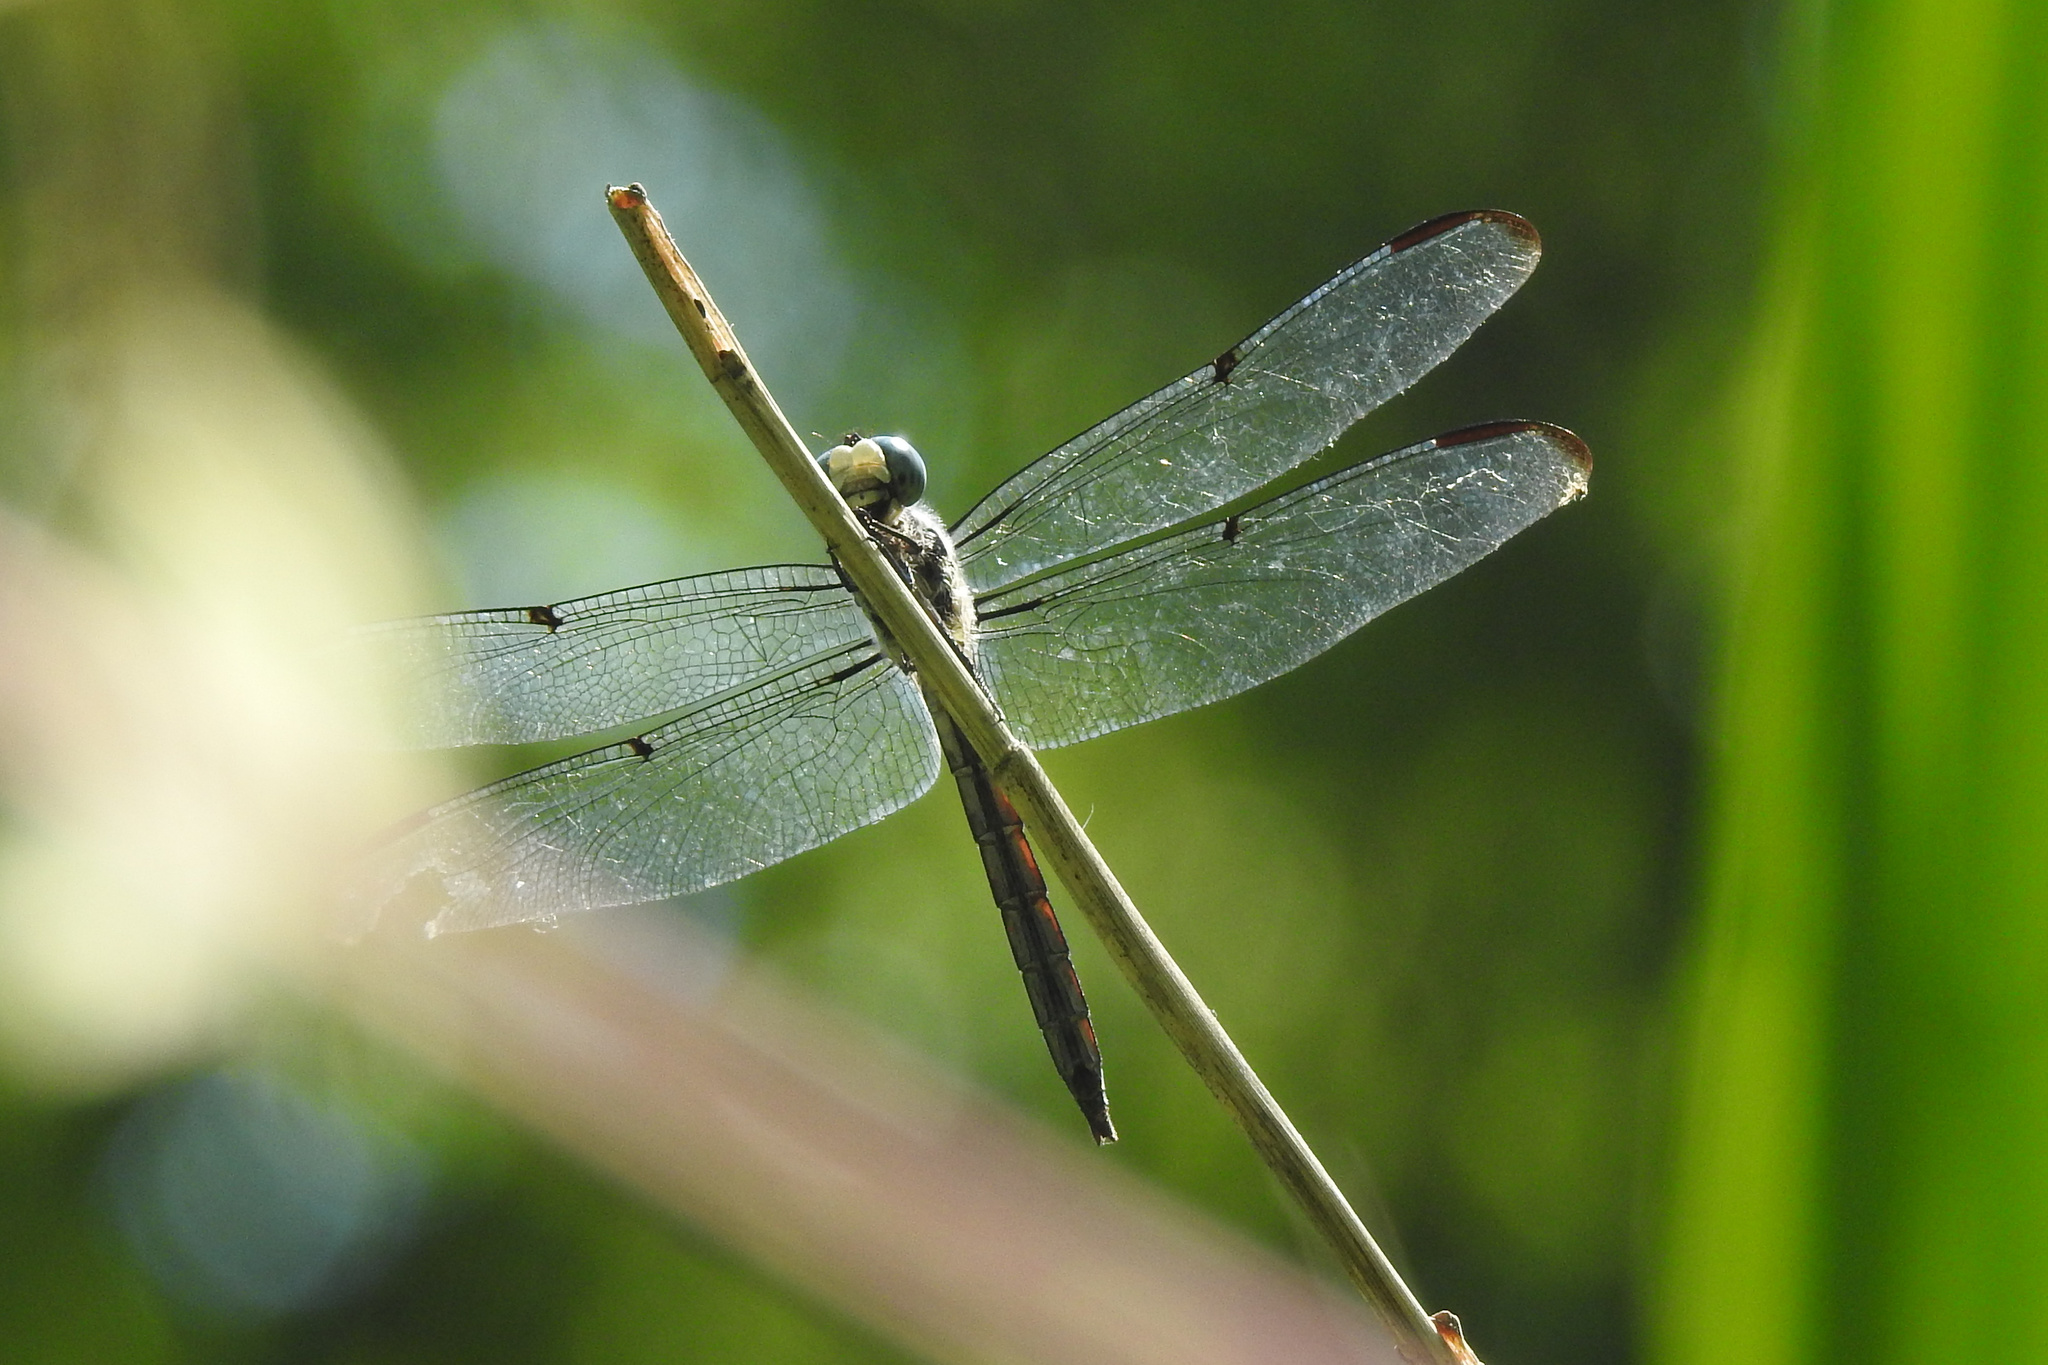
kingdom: Animalia
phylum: Arthropoda
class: Insecta
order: Odonata
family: Libellulidae
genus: Libellula
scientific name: Libellula vibrans
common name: Great blue skimmer
